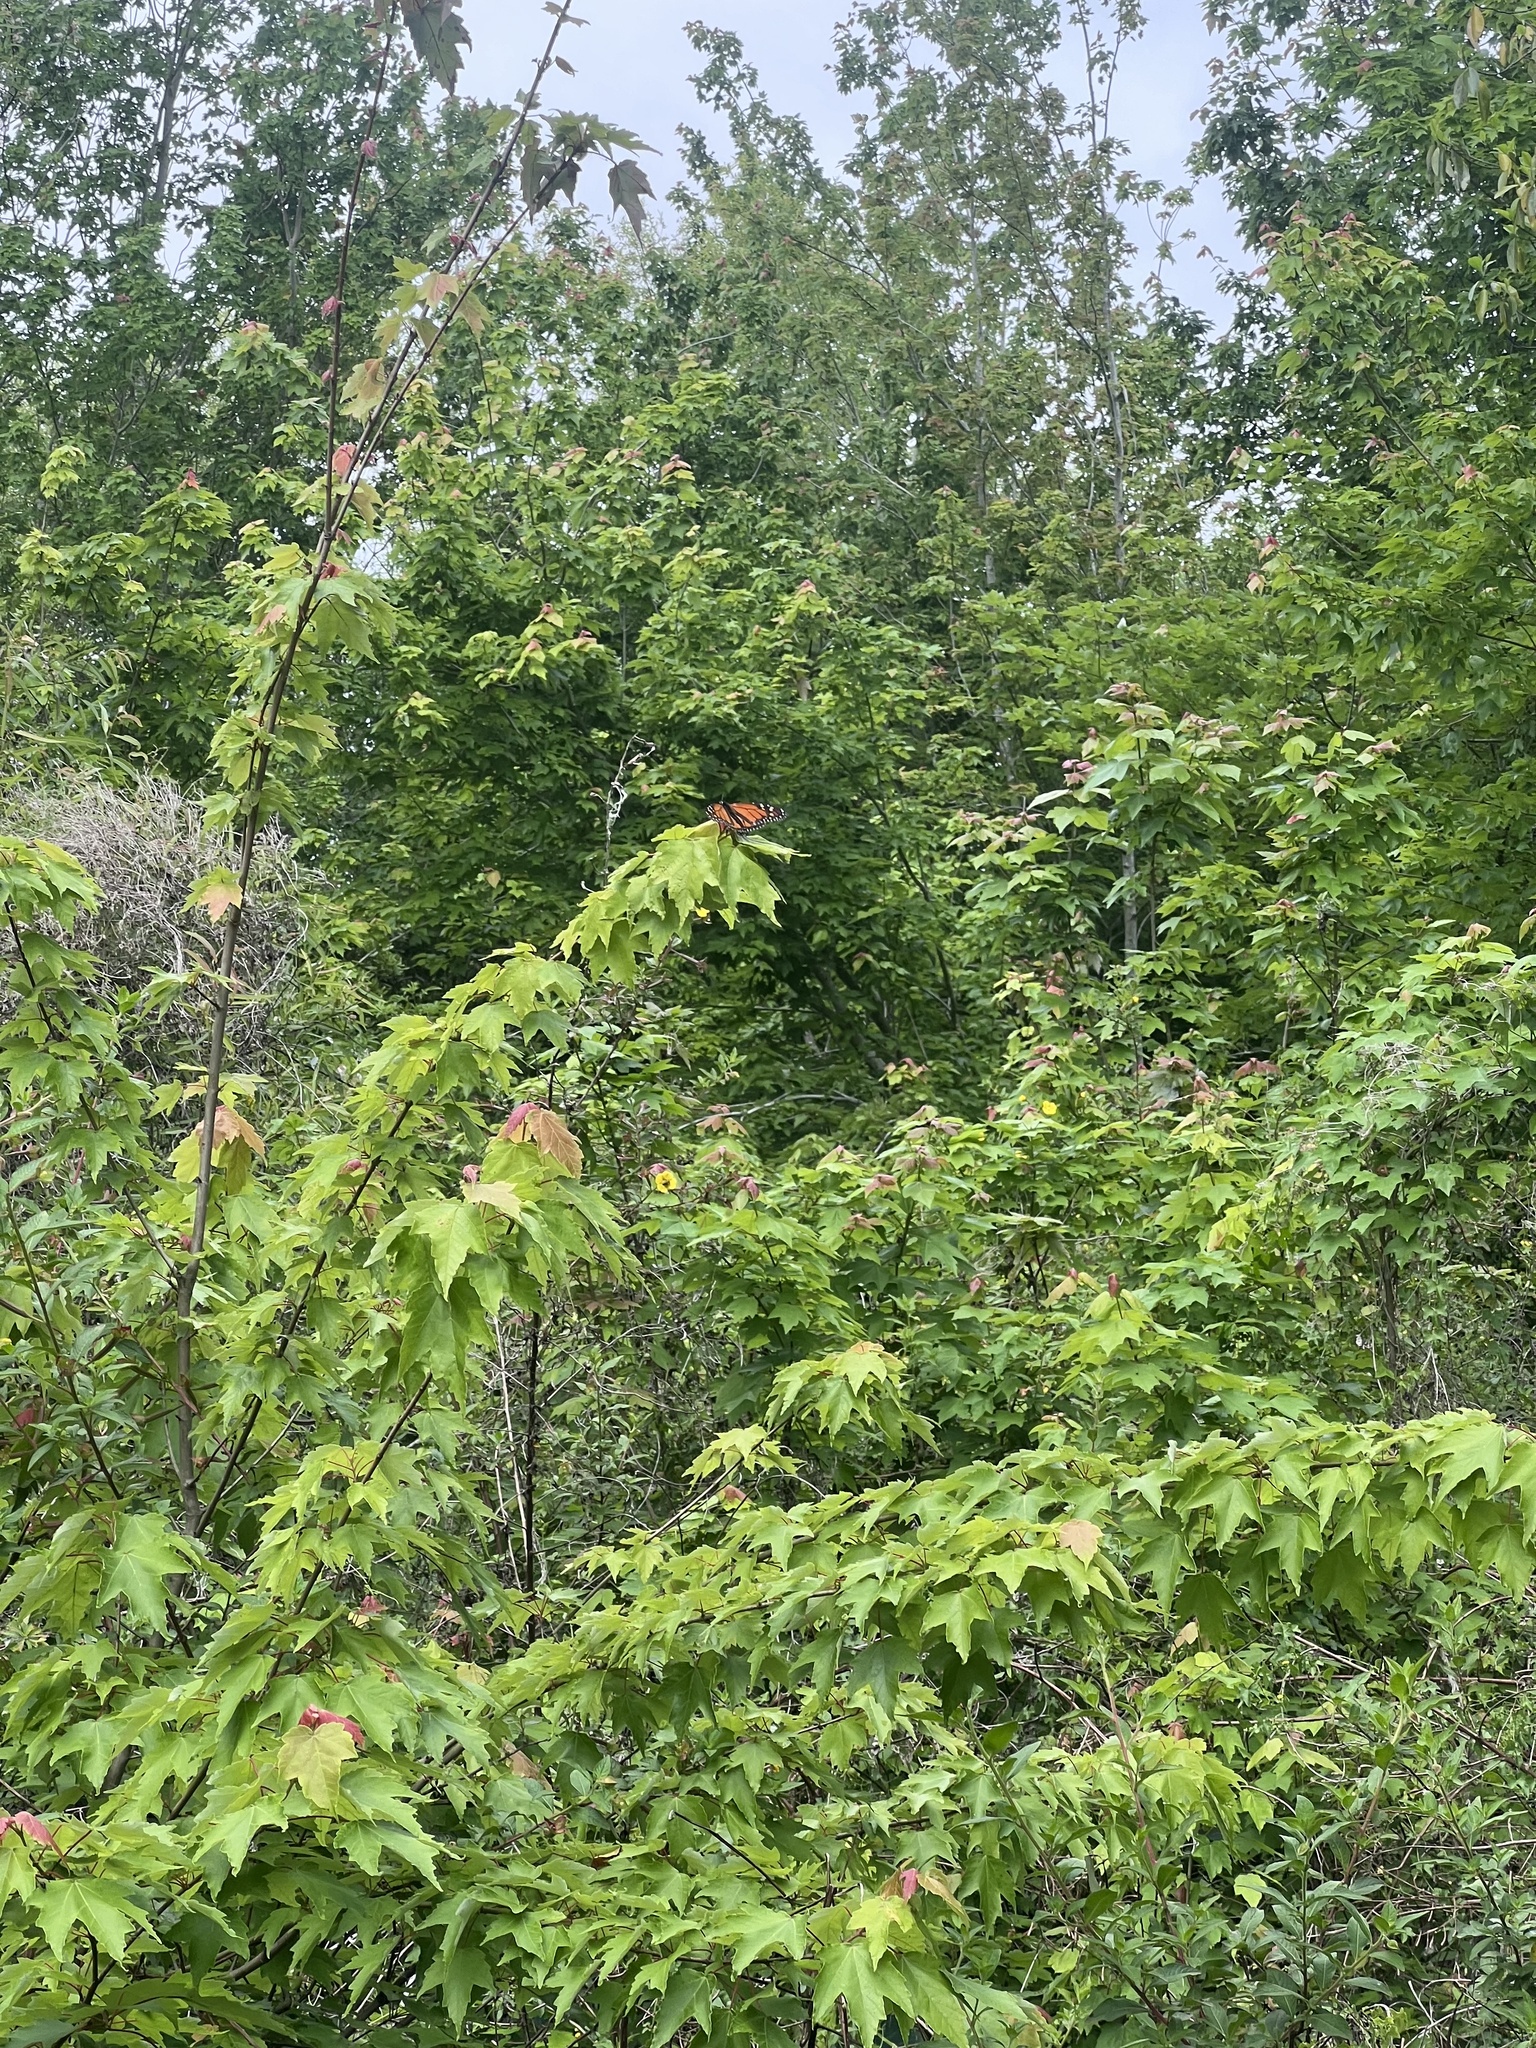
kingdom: Animalia
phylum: Arthropoda
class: Insecta
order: Lepidoptera
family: Nymphalidae
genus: Danaus
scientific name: Danaus plexippus
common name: Monarch
